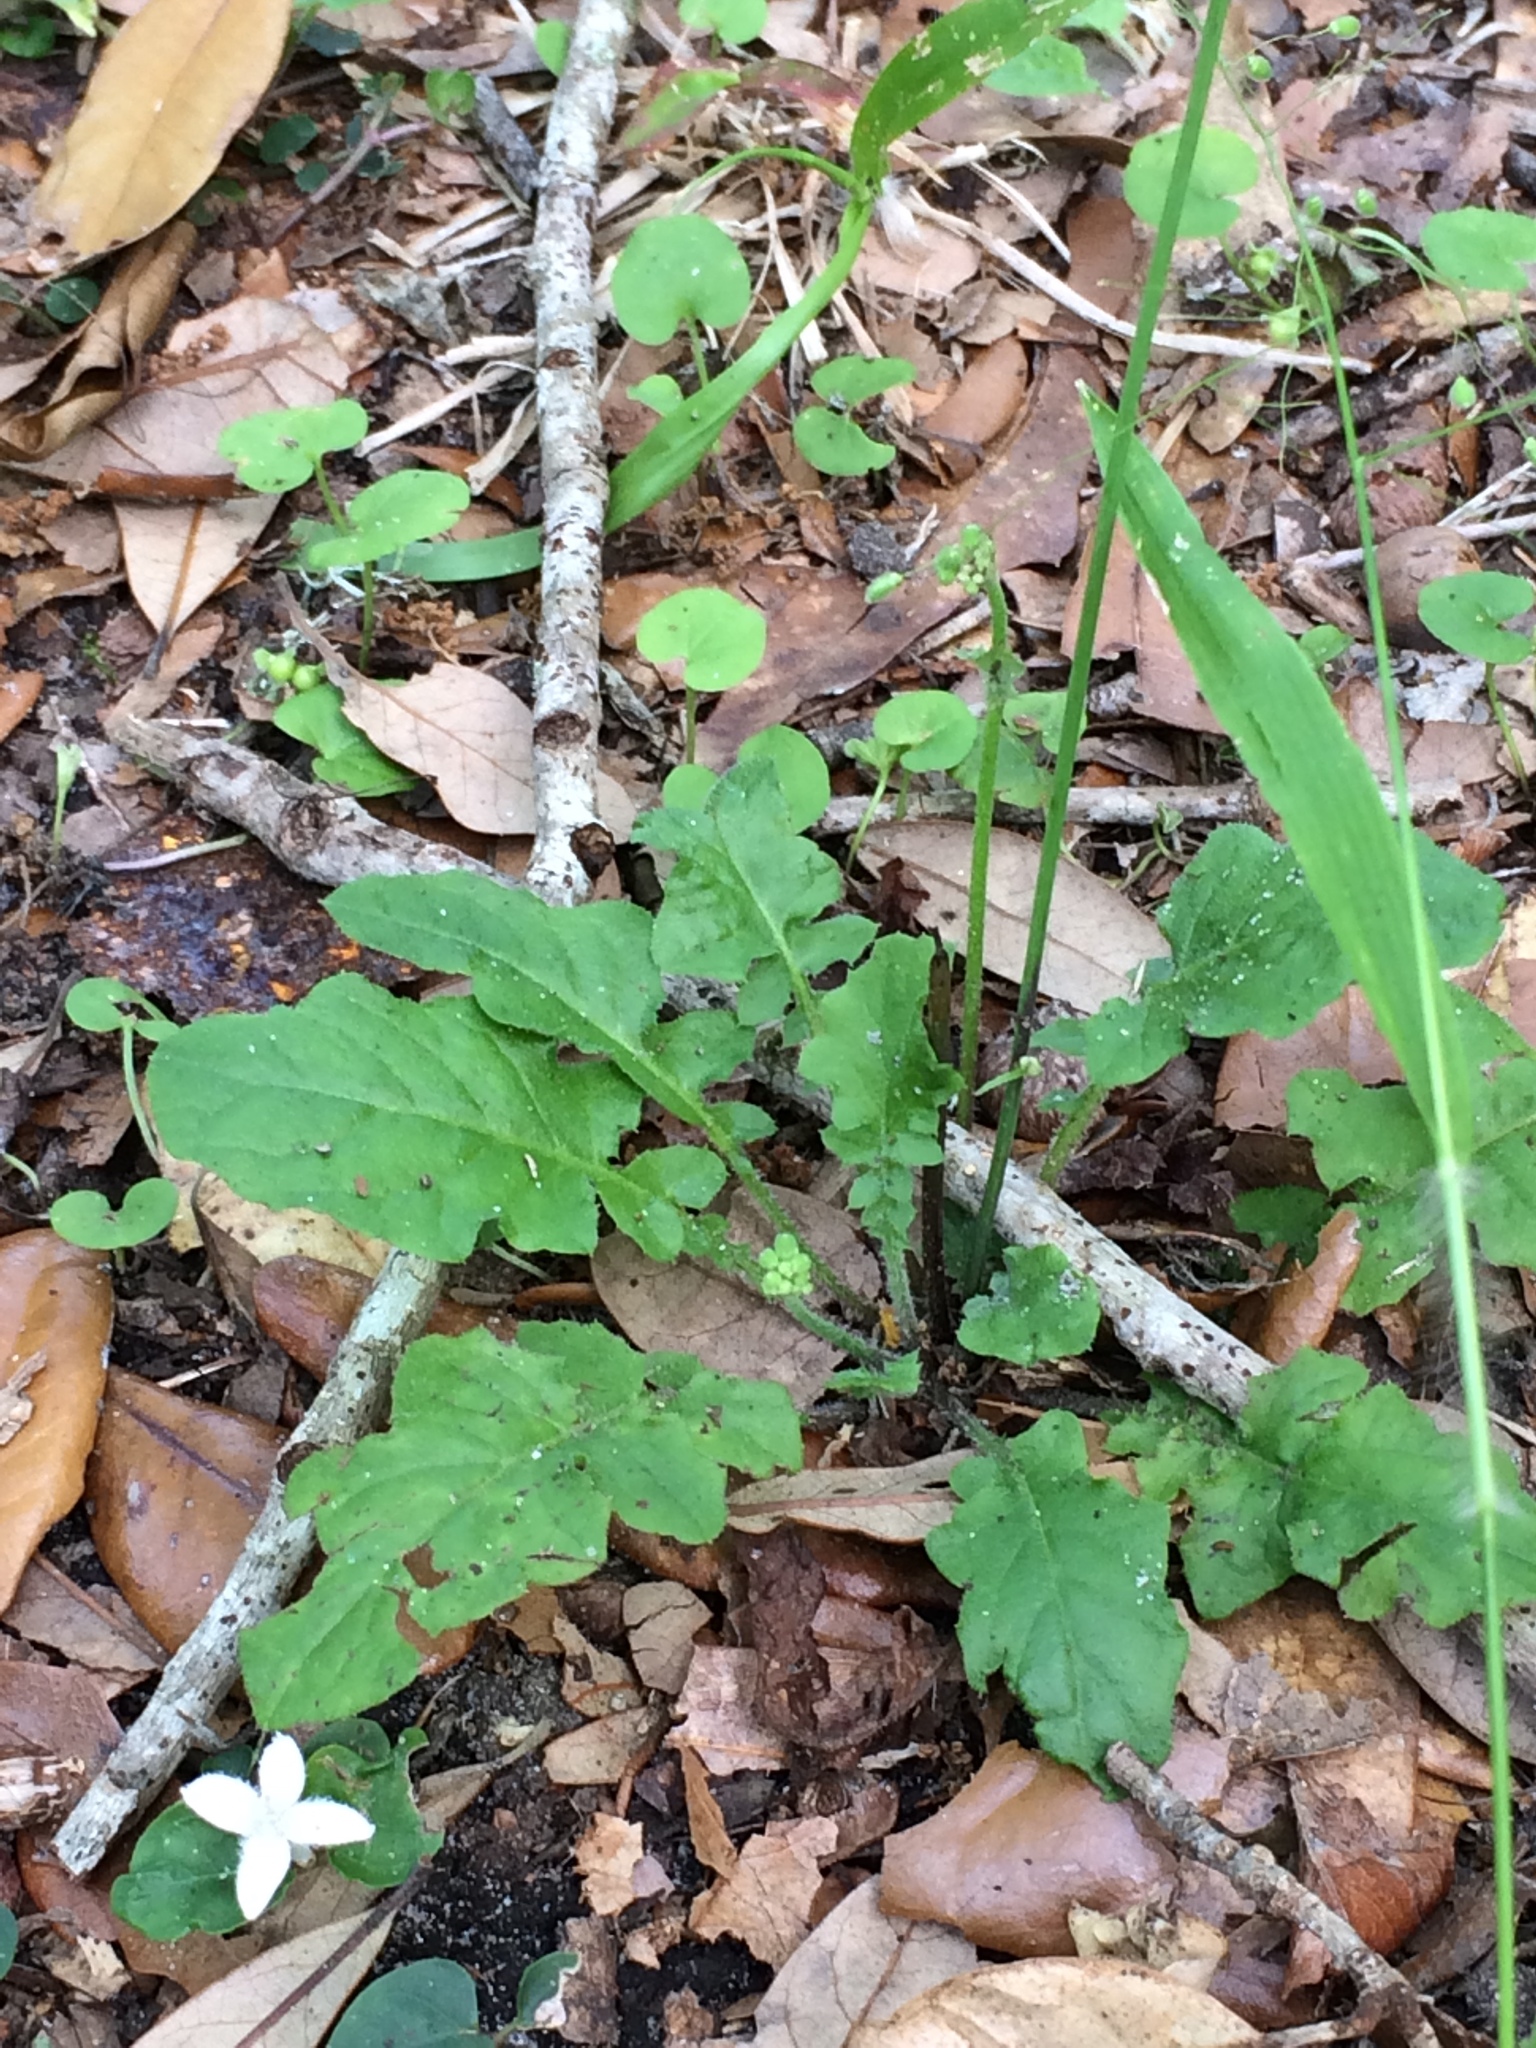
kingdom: Plantae
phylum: Tracheophyta
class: Magnoliopsida
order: Asterales
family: Asteraceae
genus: Youngia
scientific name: Youngia japonica
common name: Oriental false hawksbeard
